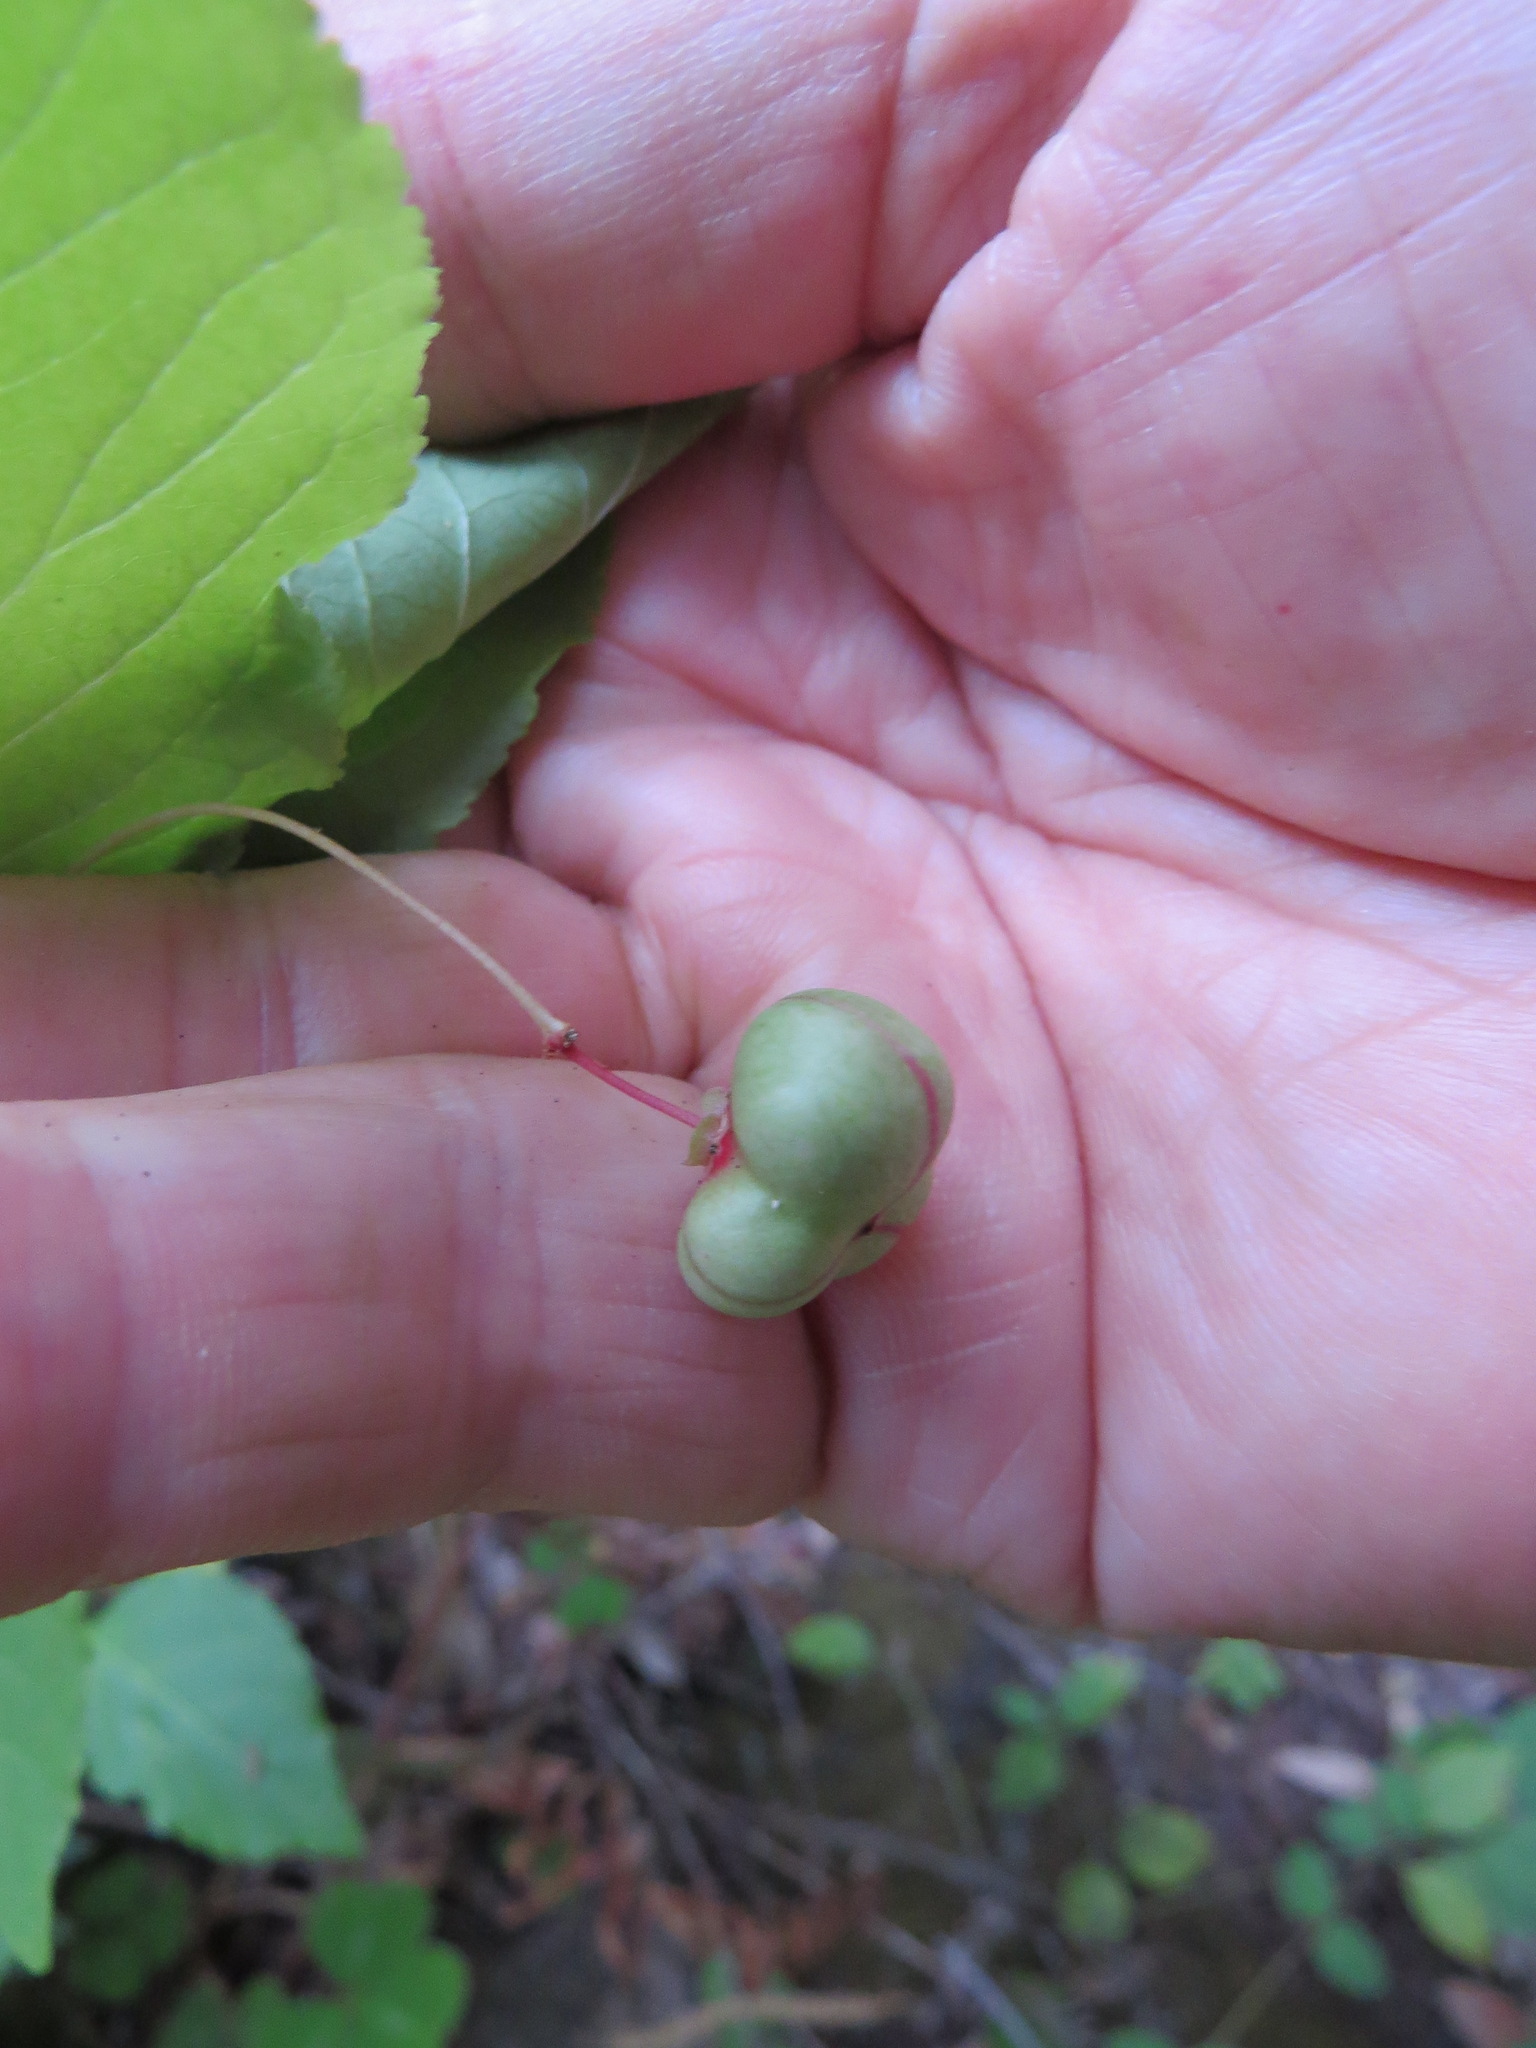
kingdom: Plantae
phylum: Tracheophyta
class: Magnoliopsida
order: Celastrales
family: Celastraceae
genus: Euonymus
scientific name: Euonymus occidentalis
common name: Western burningbush
